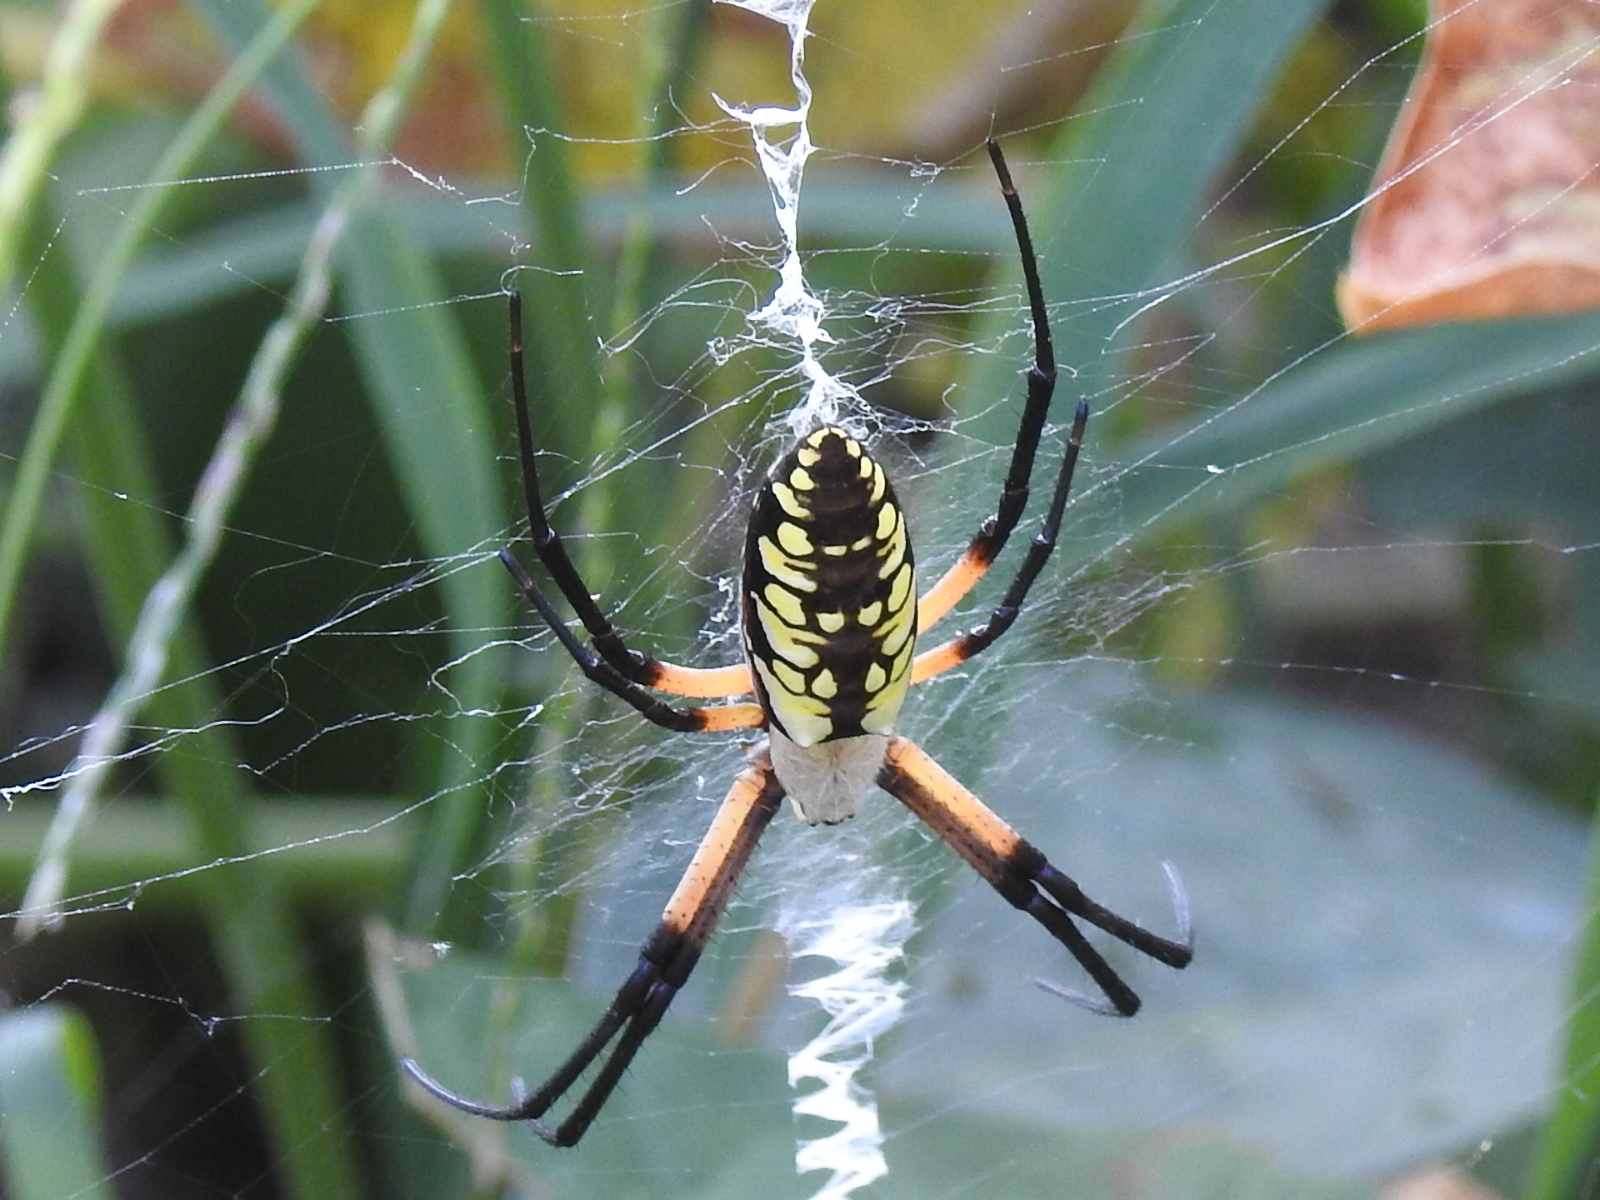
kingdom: Animalia
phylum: Arthropoda
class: Arachnida
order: Araneae
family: Araneidae
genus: Argiope
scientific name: Argiope aurantia
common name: Orb weavers
